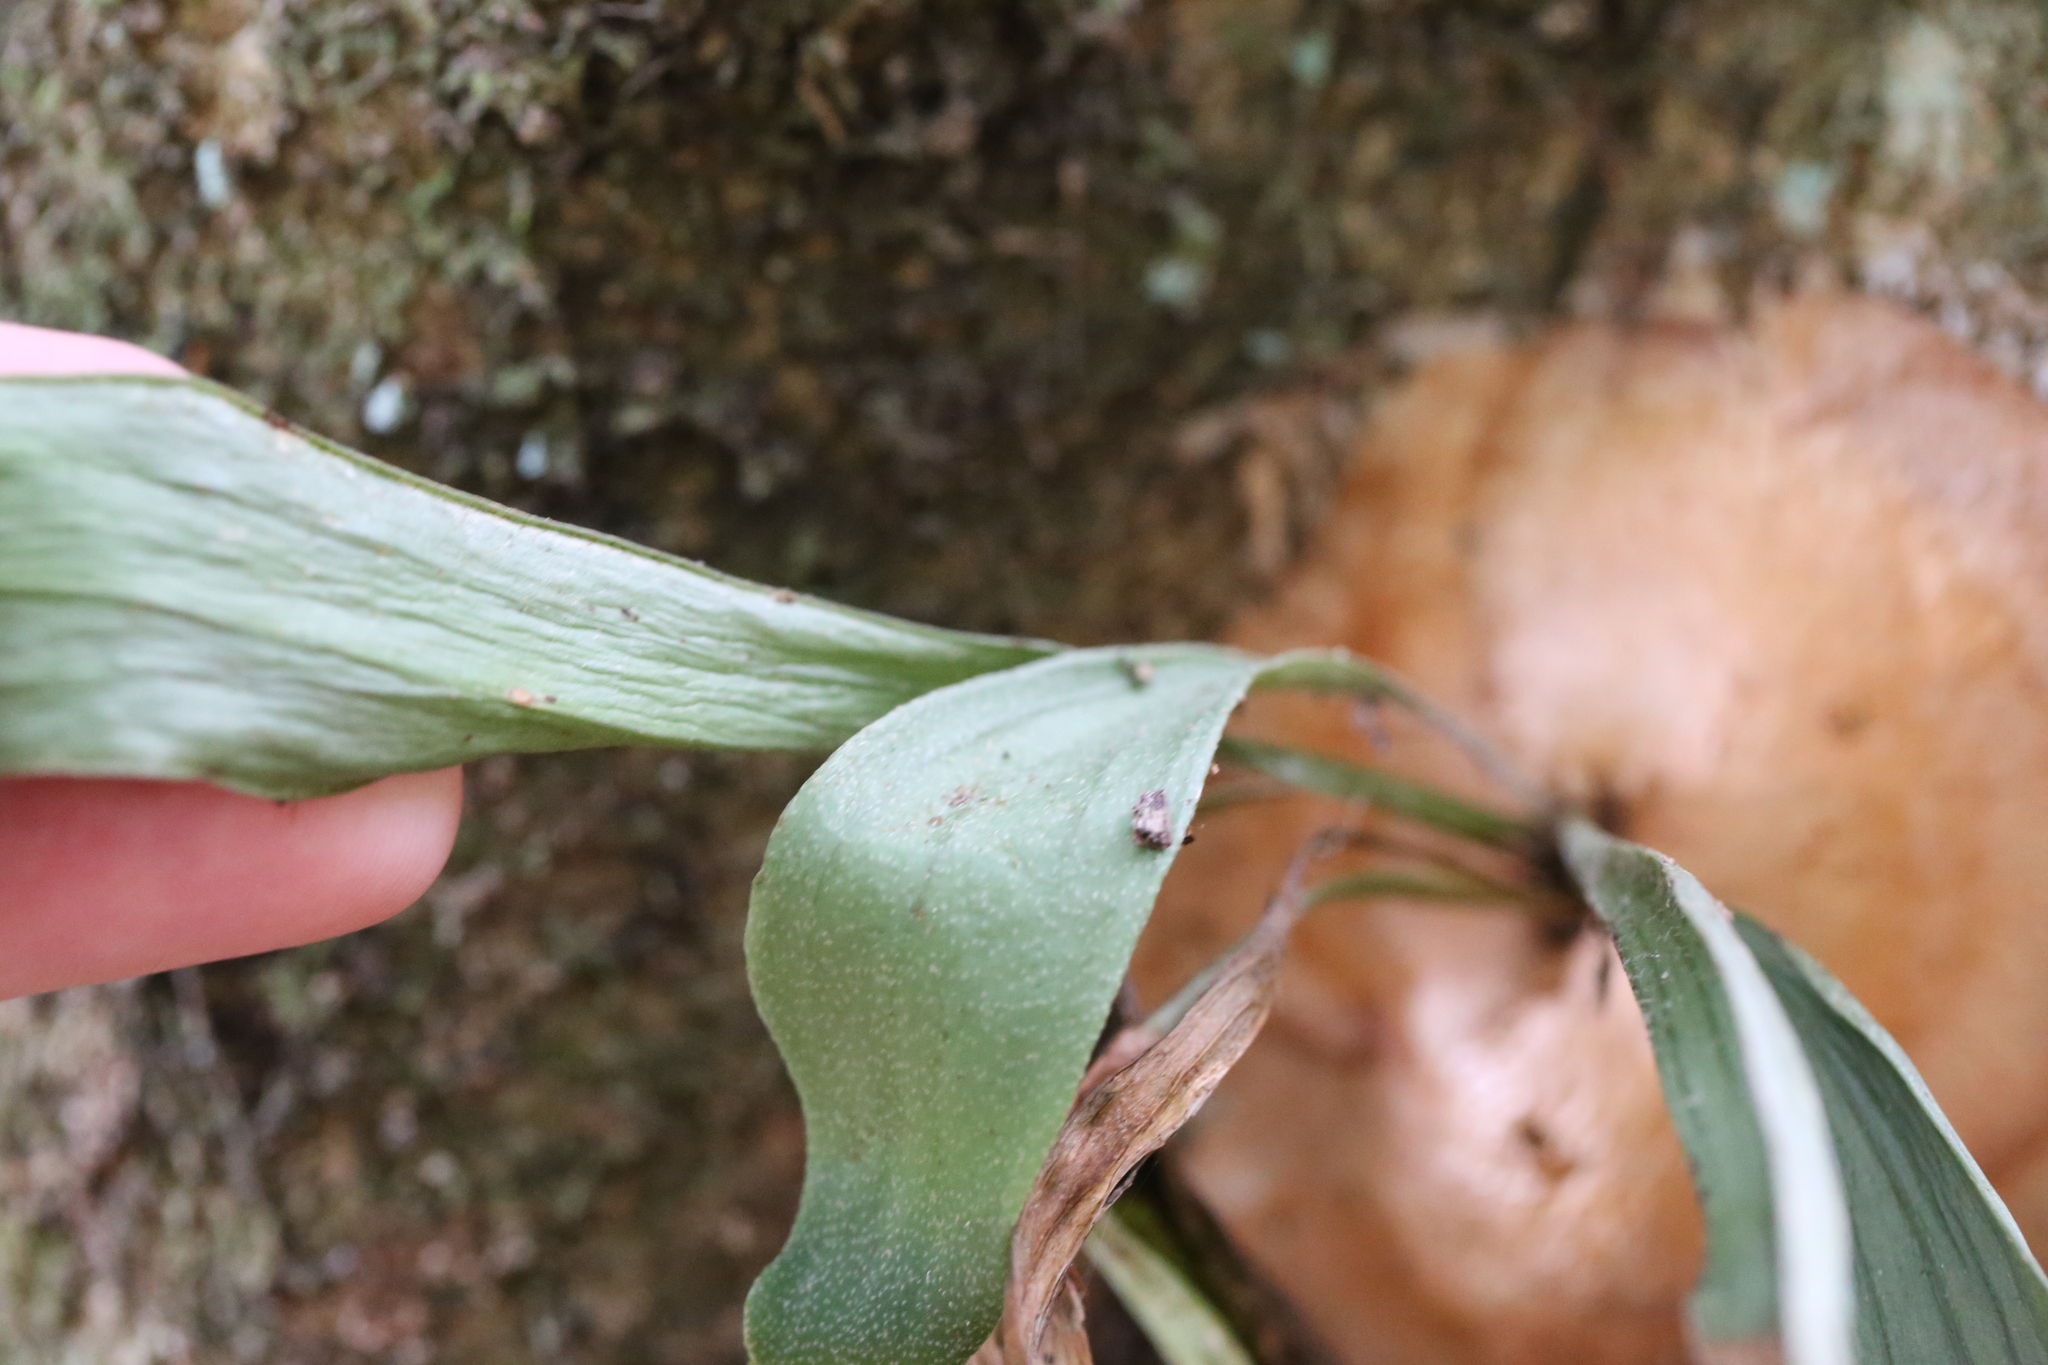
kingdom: Plantae
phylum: Tracheophyta
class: Polypodiopsida
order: Polypodiales
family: Polypodiaceae
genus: Platycerium
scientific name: Platycerium bifurcatum
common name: Elkhorn fern
